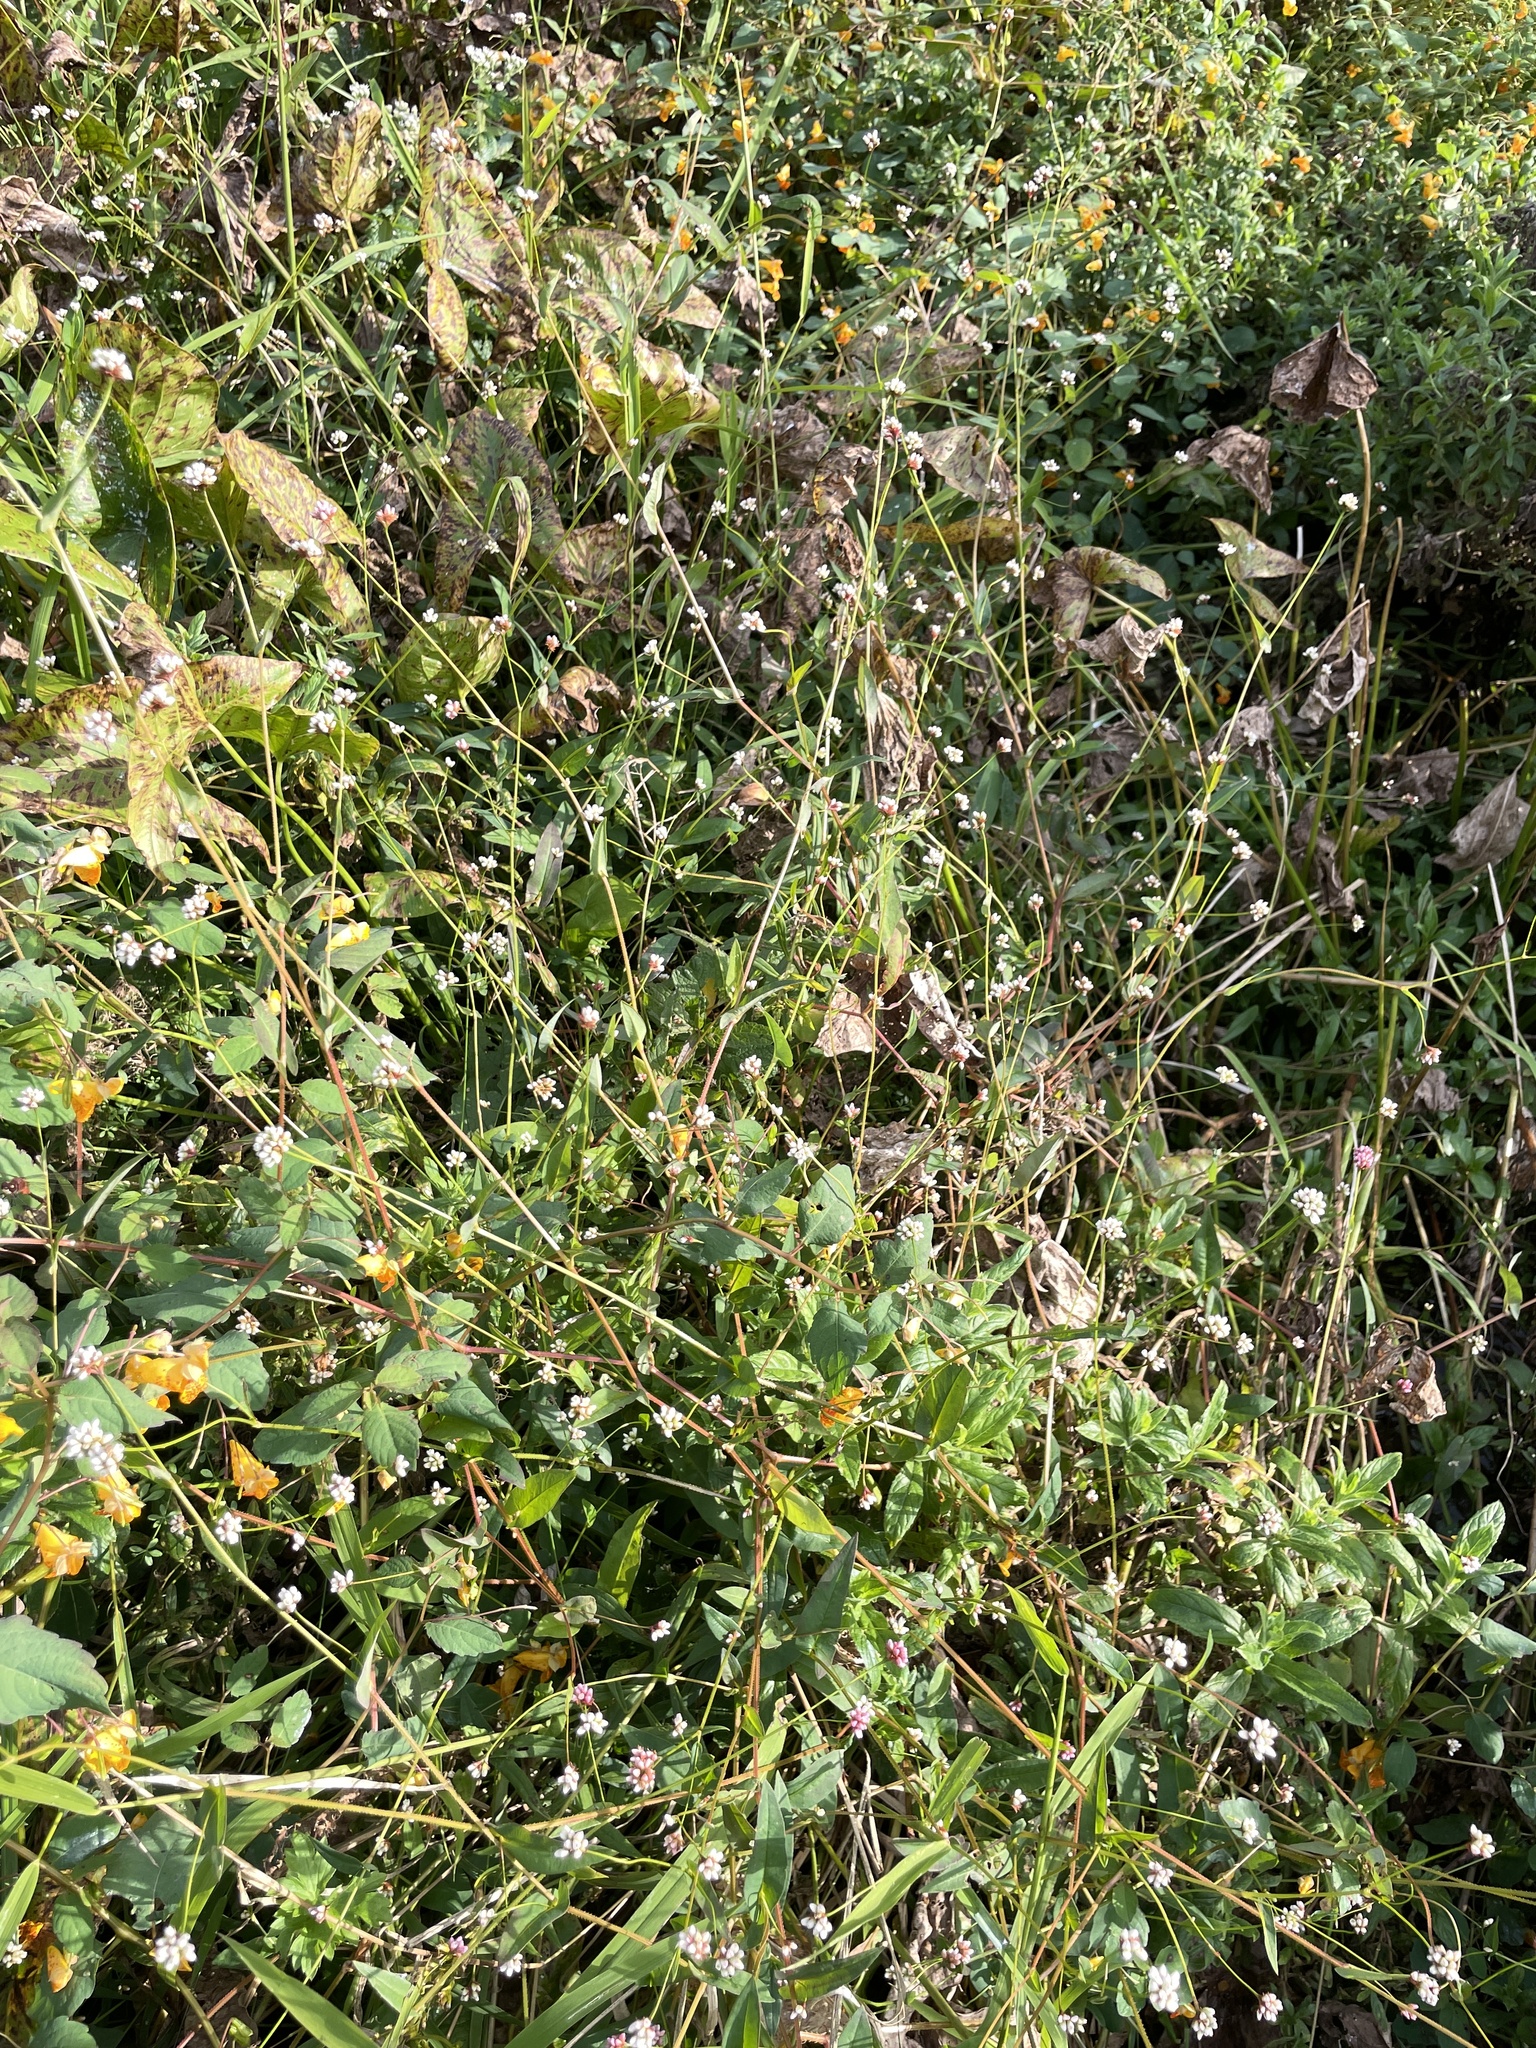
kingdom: Plantae
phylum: Tracheophyta
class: Magnoliopsida
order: Caryophyllales
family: Polygonaceae
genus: Persicaria
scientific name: Persicaria sagittata
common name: American tearthumb
